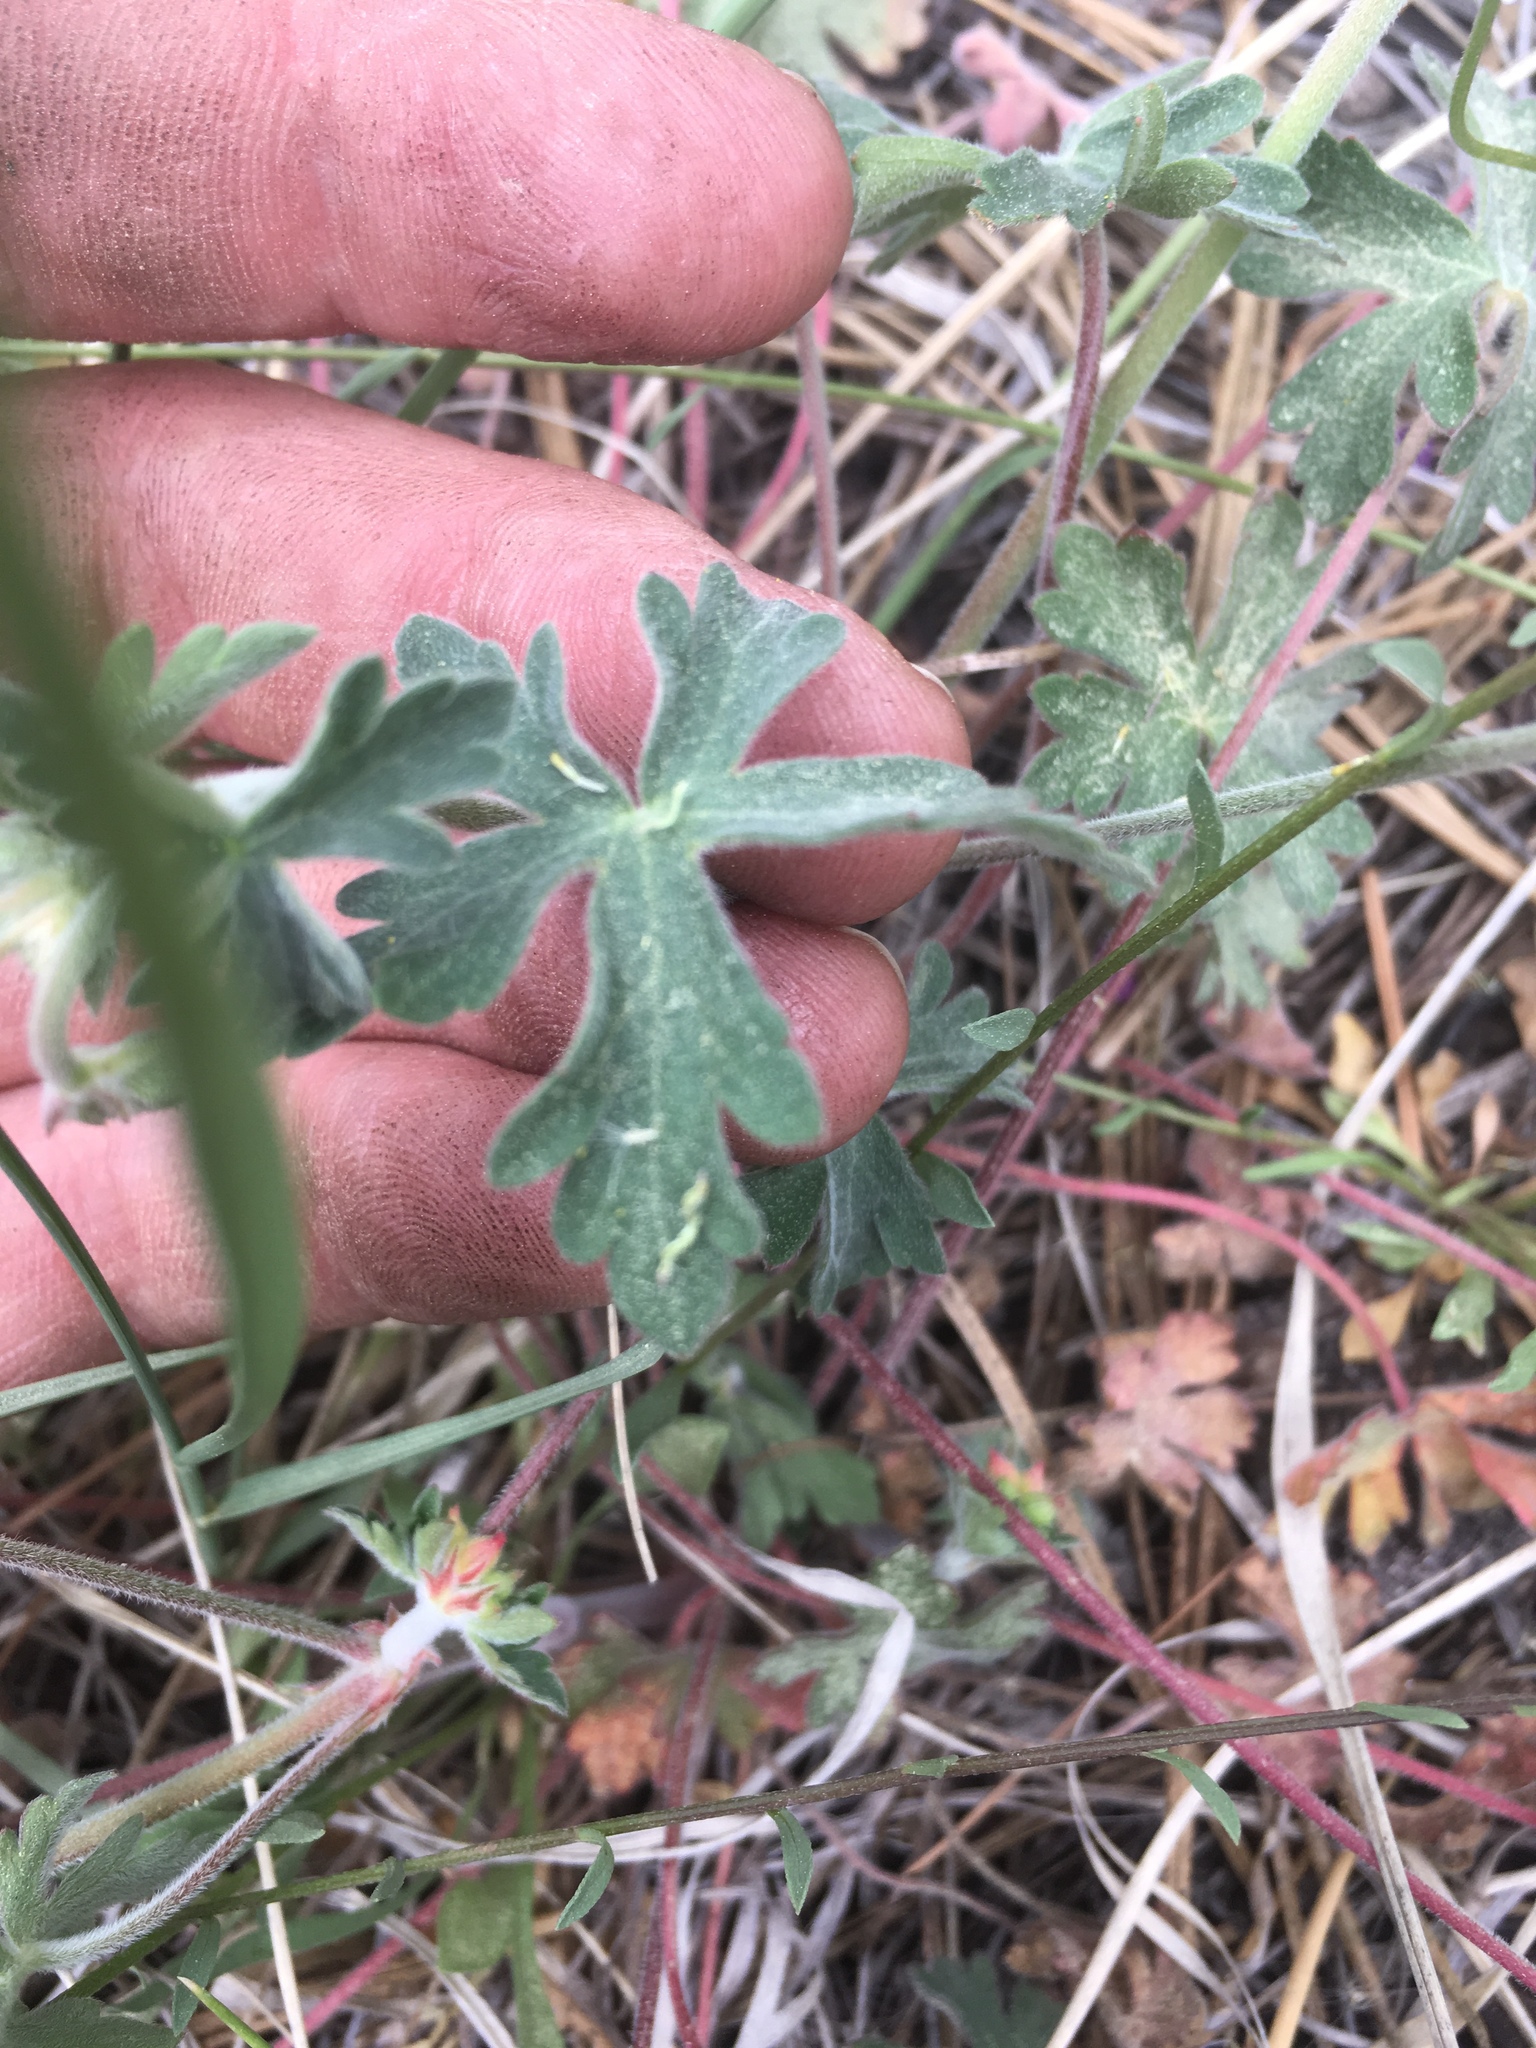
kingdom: Plantae
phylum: Tracheophyta
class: Magnoliopsida
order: Geraniales
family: Geraniaceae
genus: Geranium
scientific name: Geranium caespitosum
